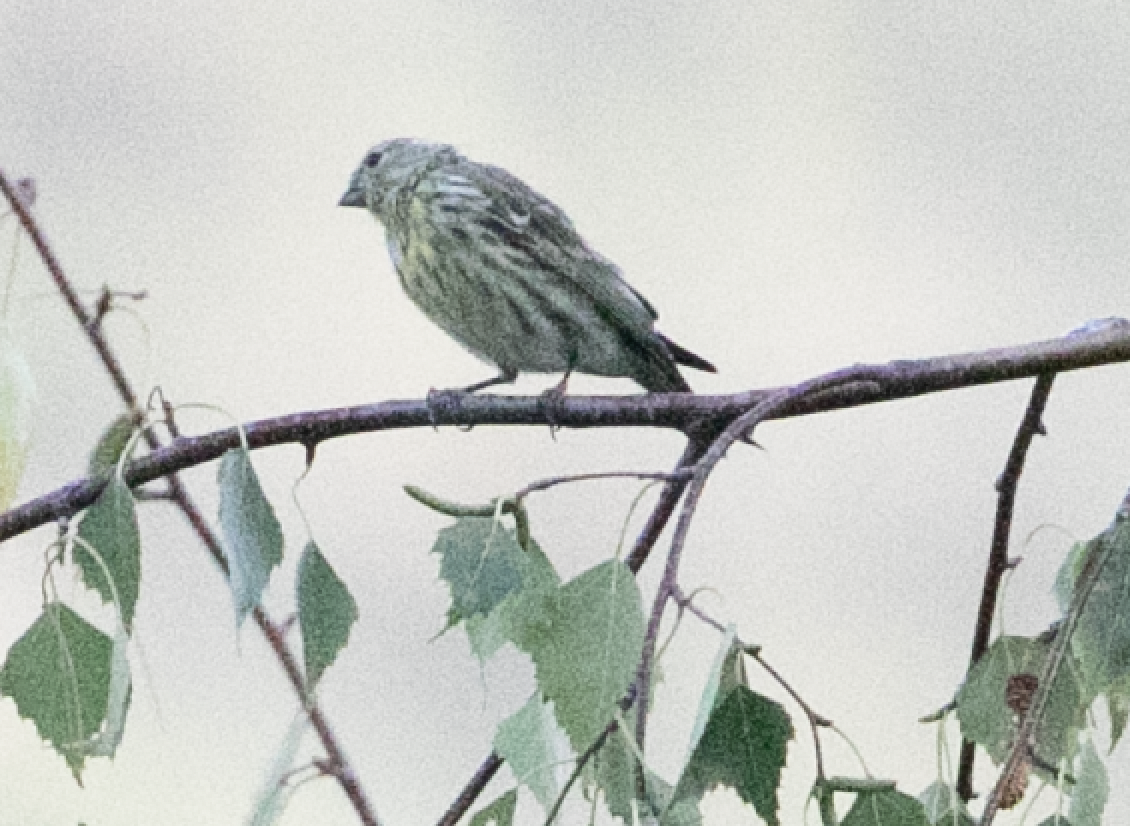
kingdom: Animalia
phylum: Chordata
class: Aves
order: Passeriformes
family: Fringillidae
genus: Serinus
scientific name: Serinus serinus
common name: European serin
